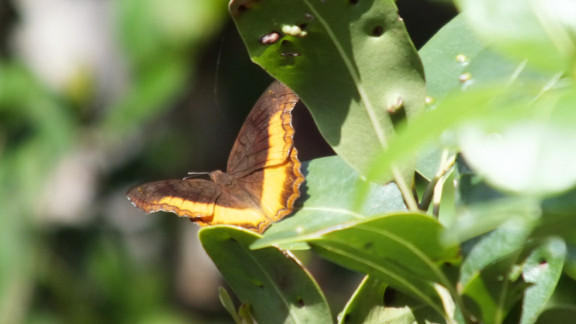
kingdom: Animalia
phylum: Arthropoda
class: Insecta
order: Lepidoptera
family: Nymphalidae
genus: Eurytela
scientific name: Eurytela dryope
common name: Golden piper
